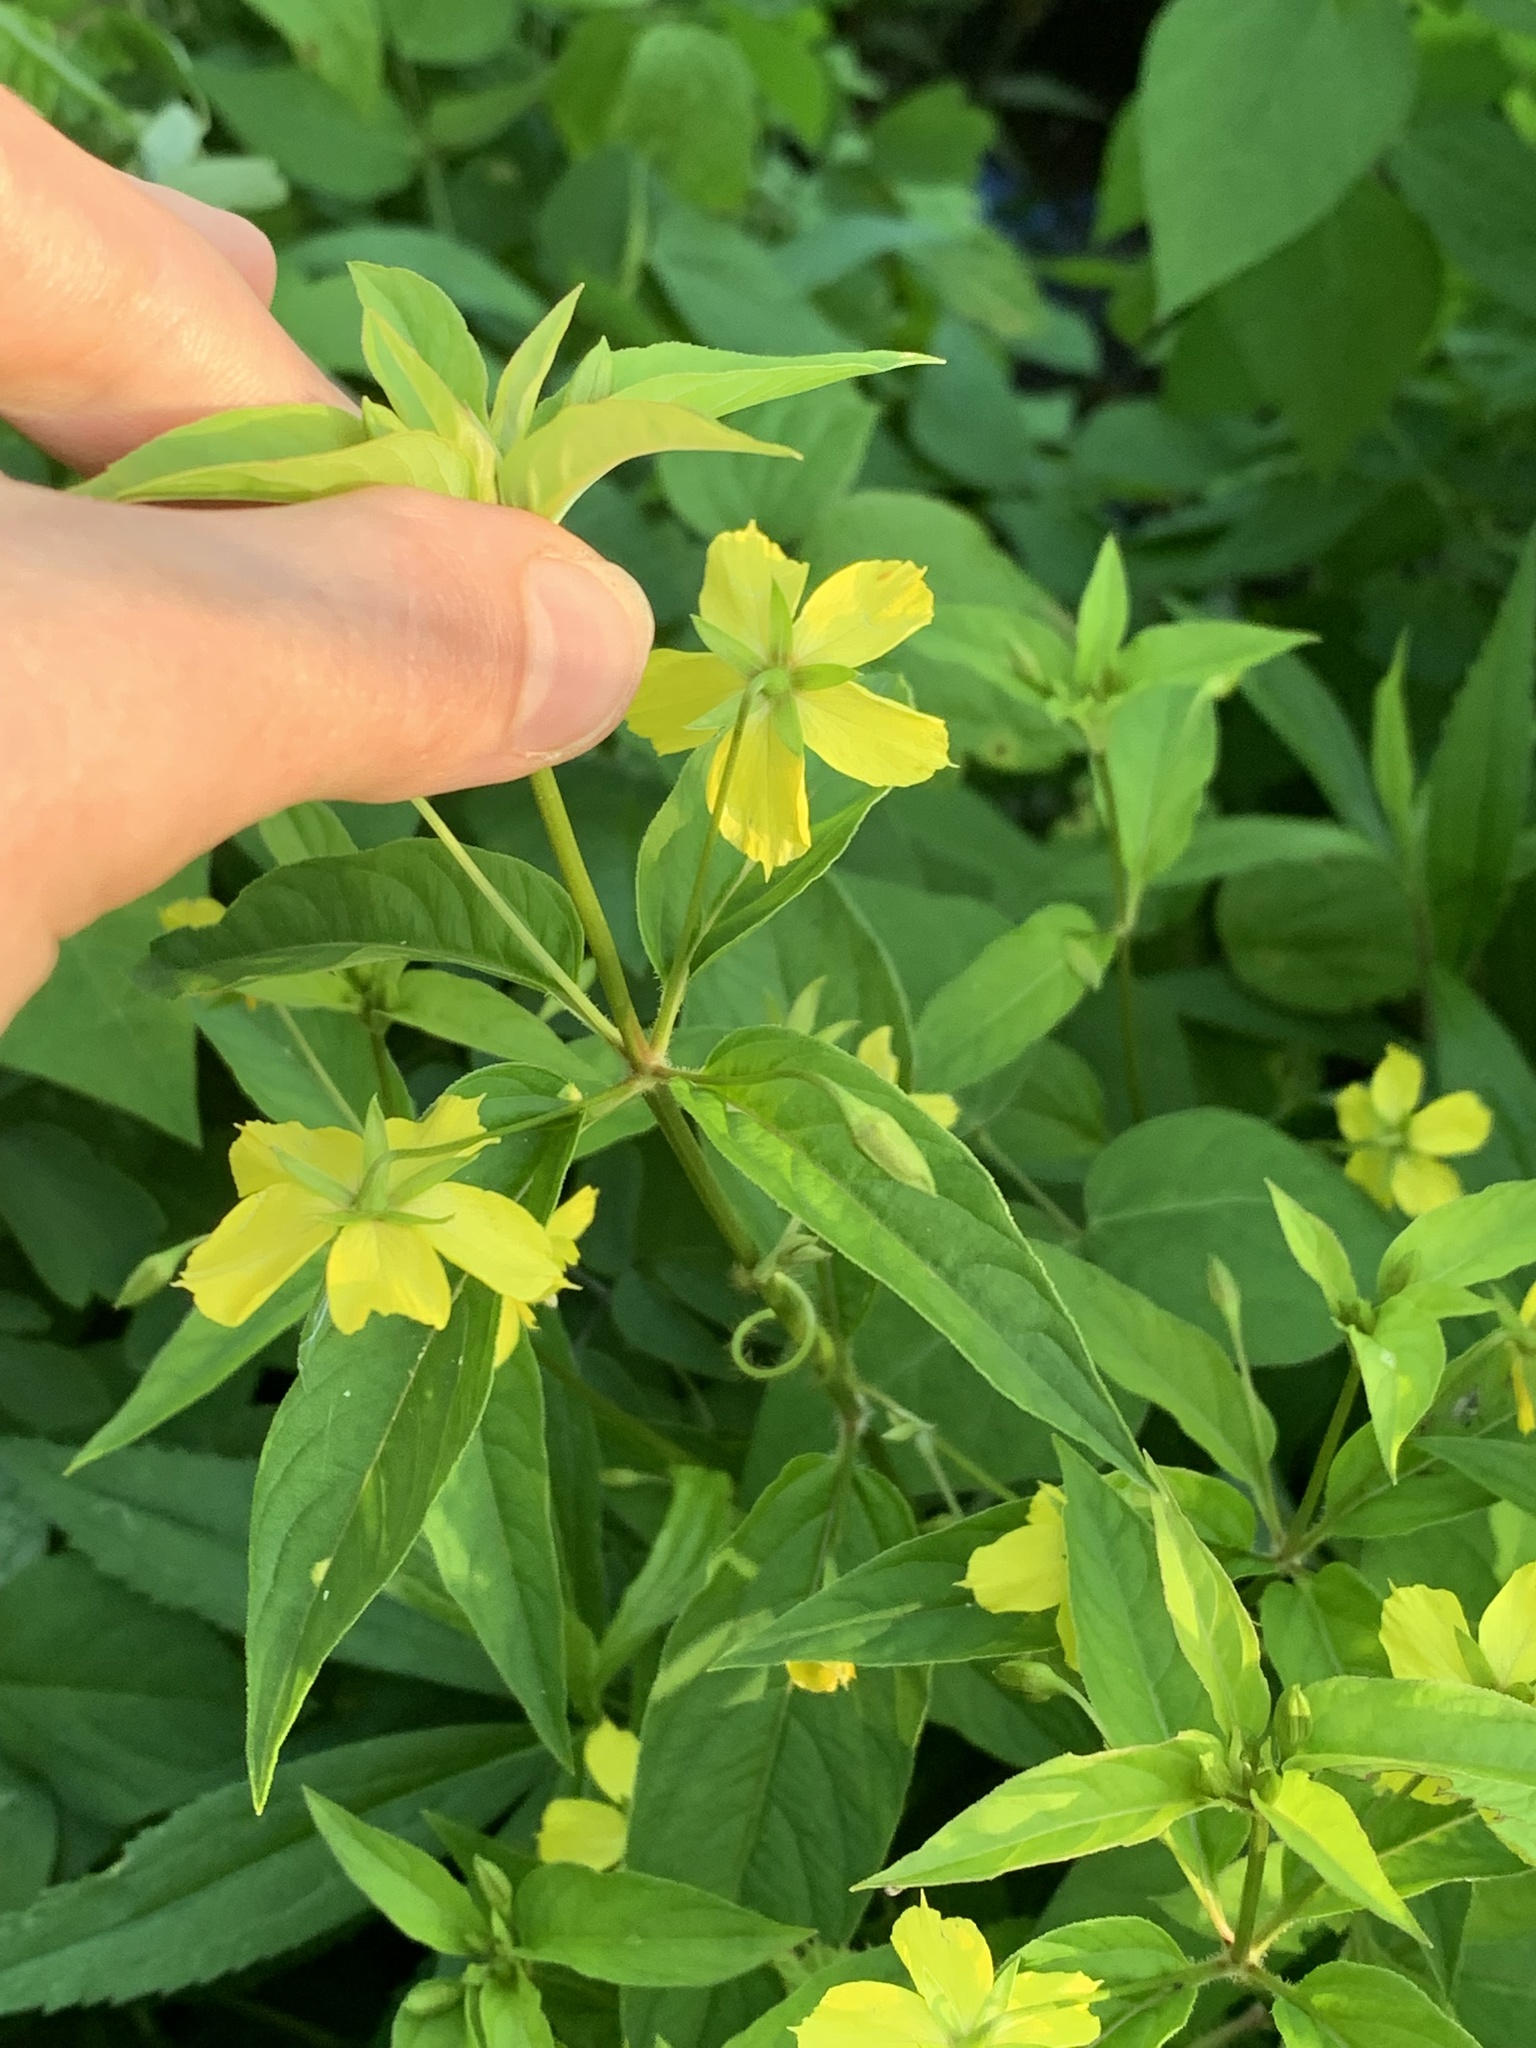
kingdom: Plantae
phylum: Tracheophyta
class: Magnoliopsida
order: Ericales
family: Primulaceae
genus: Lysimachia
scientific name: Lysimachia ciliata
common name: Fringed loosestrife
